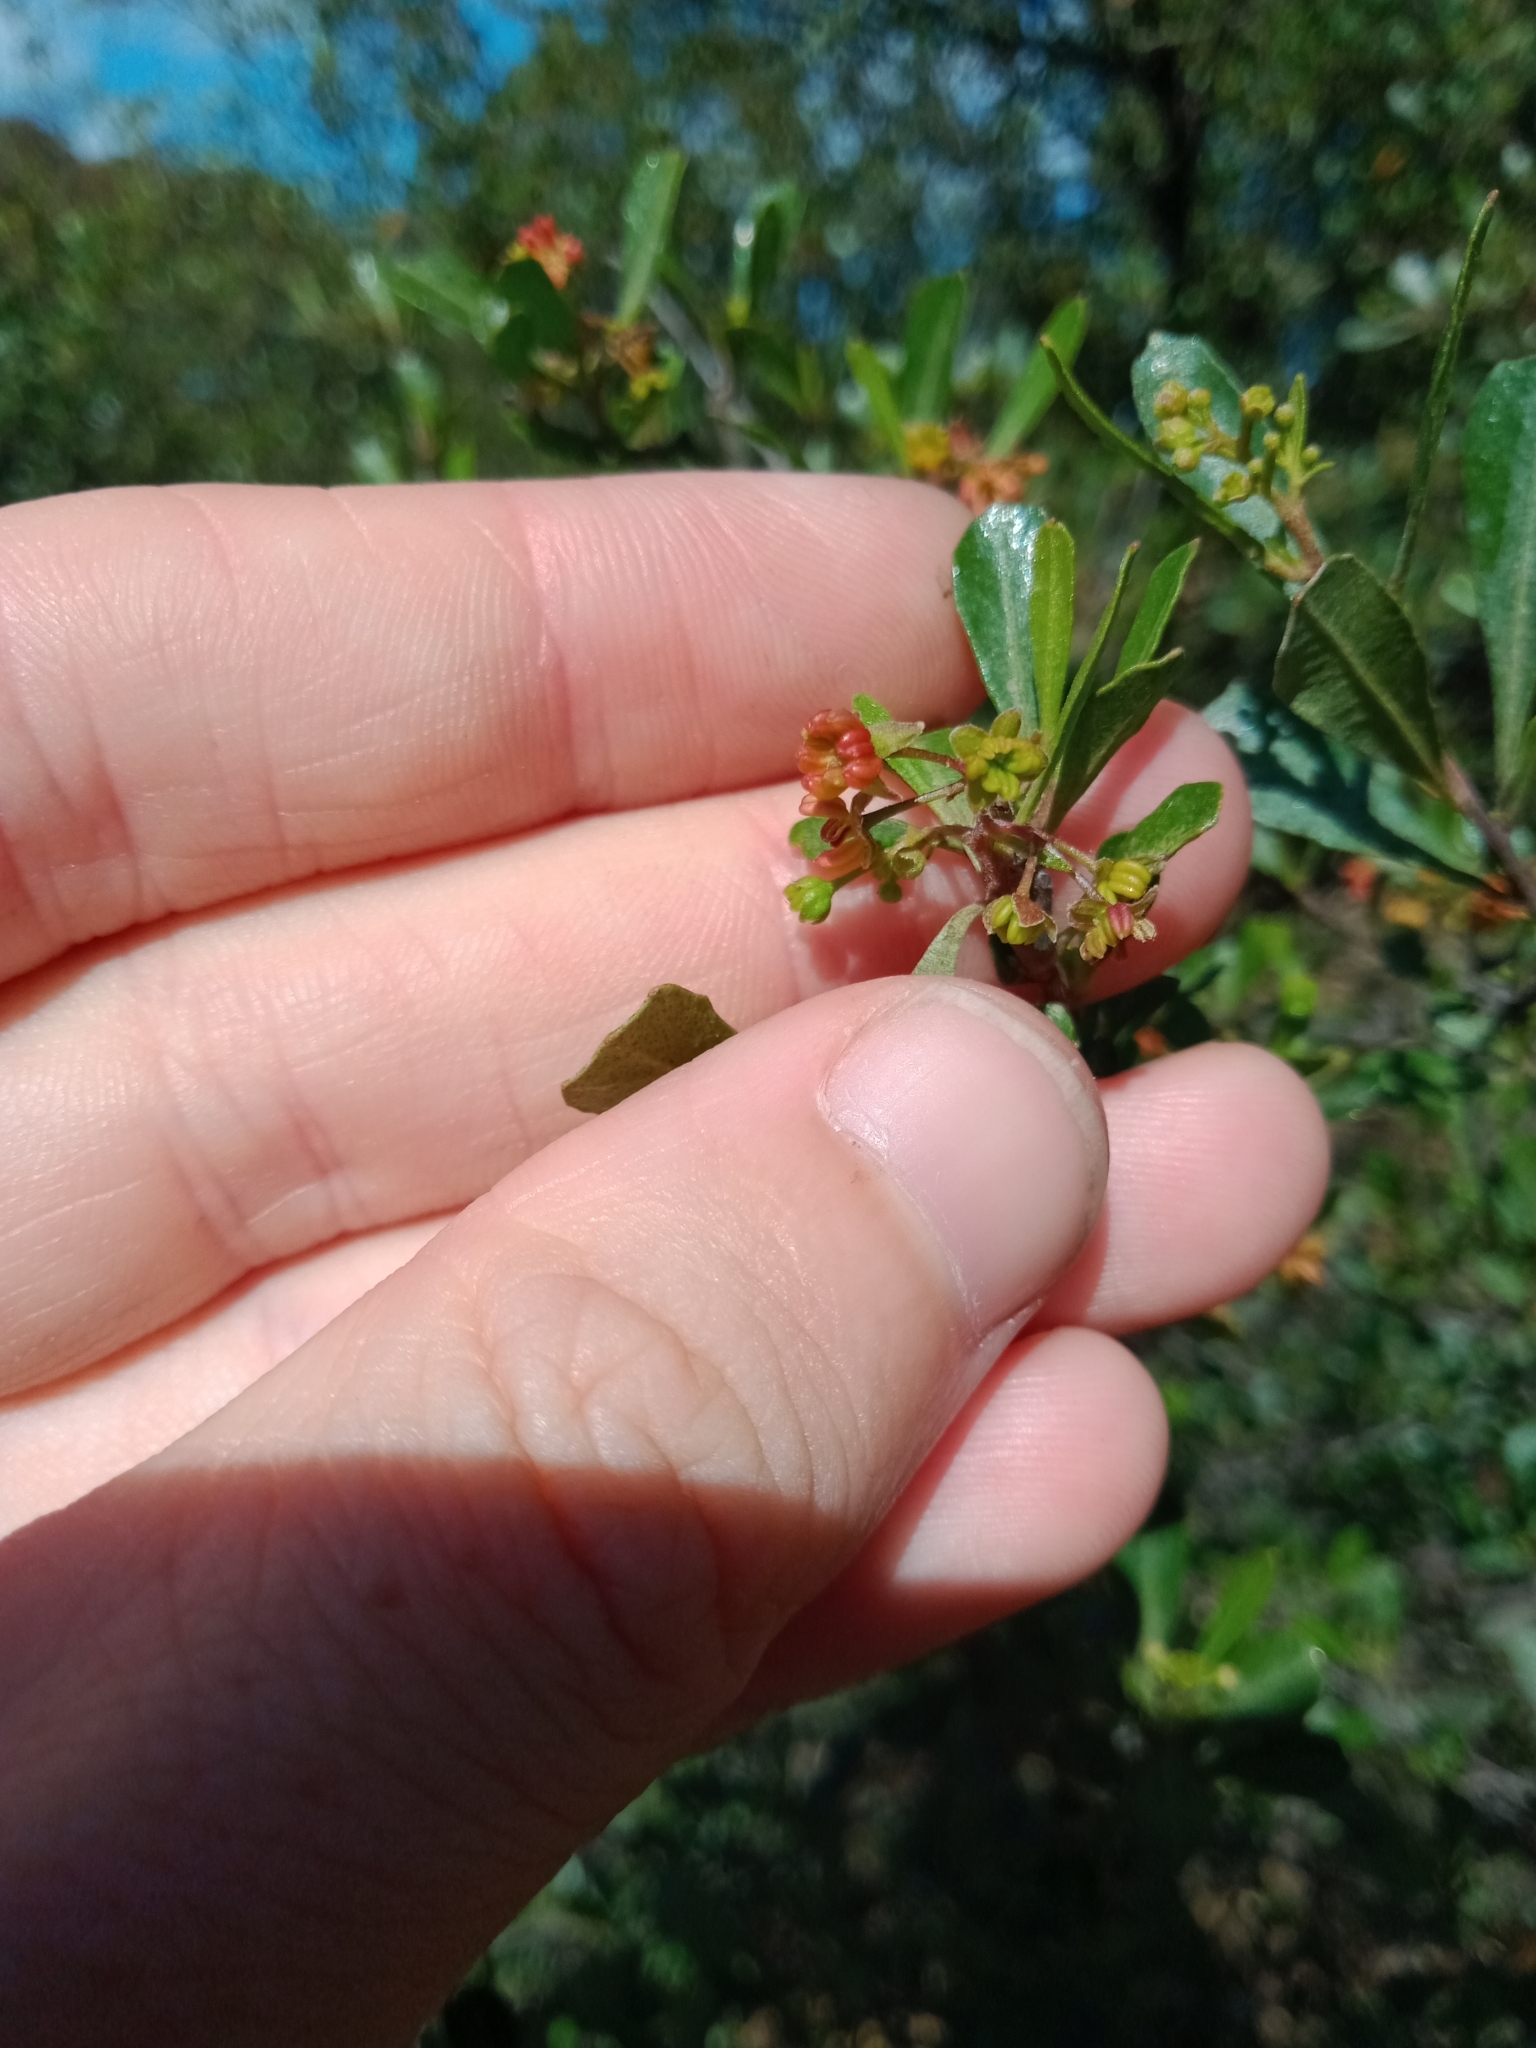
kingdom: Plantae
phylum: Tracheophyta
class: Magnoliopsida
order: Sapindales
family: Sapindaceae
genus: Dodonaea
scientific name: Dodonaea viscosa
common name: Hopbush
